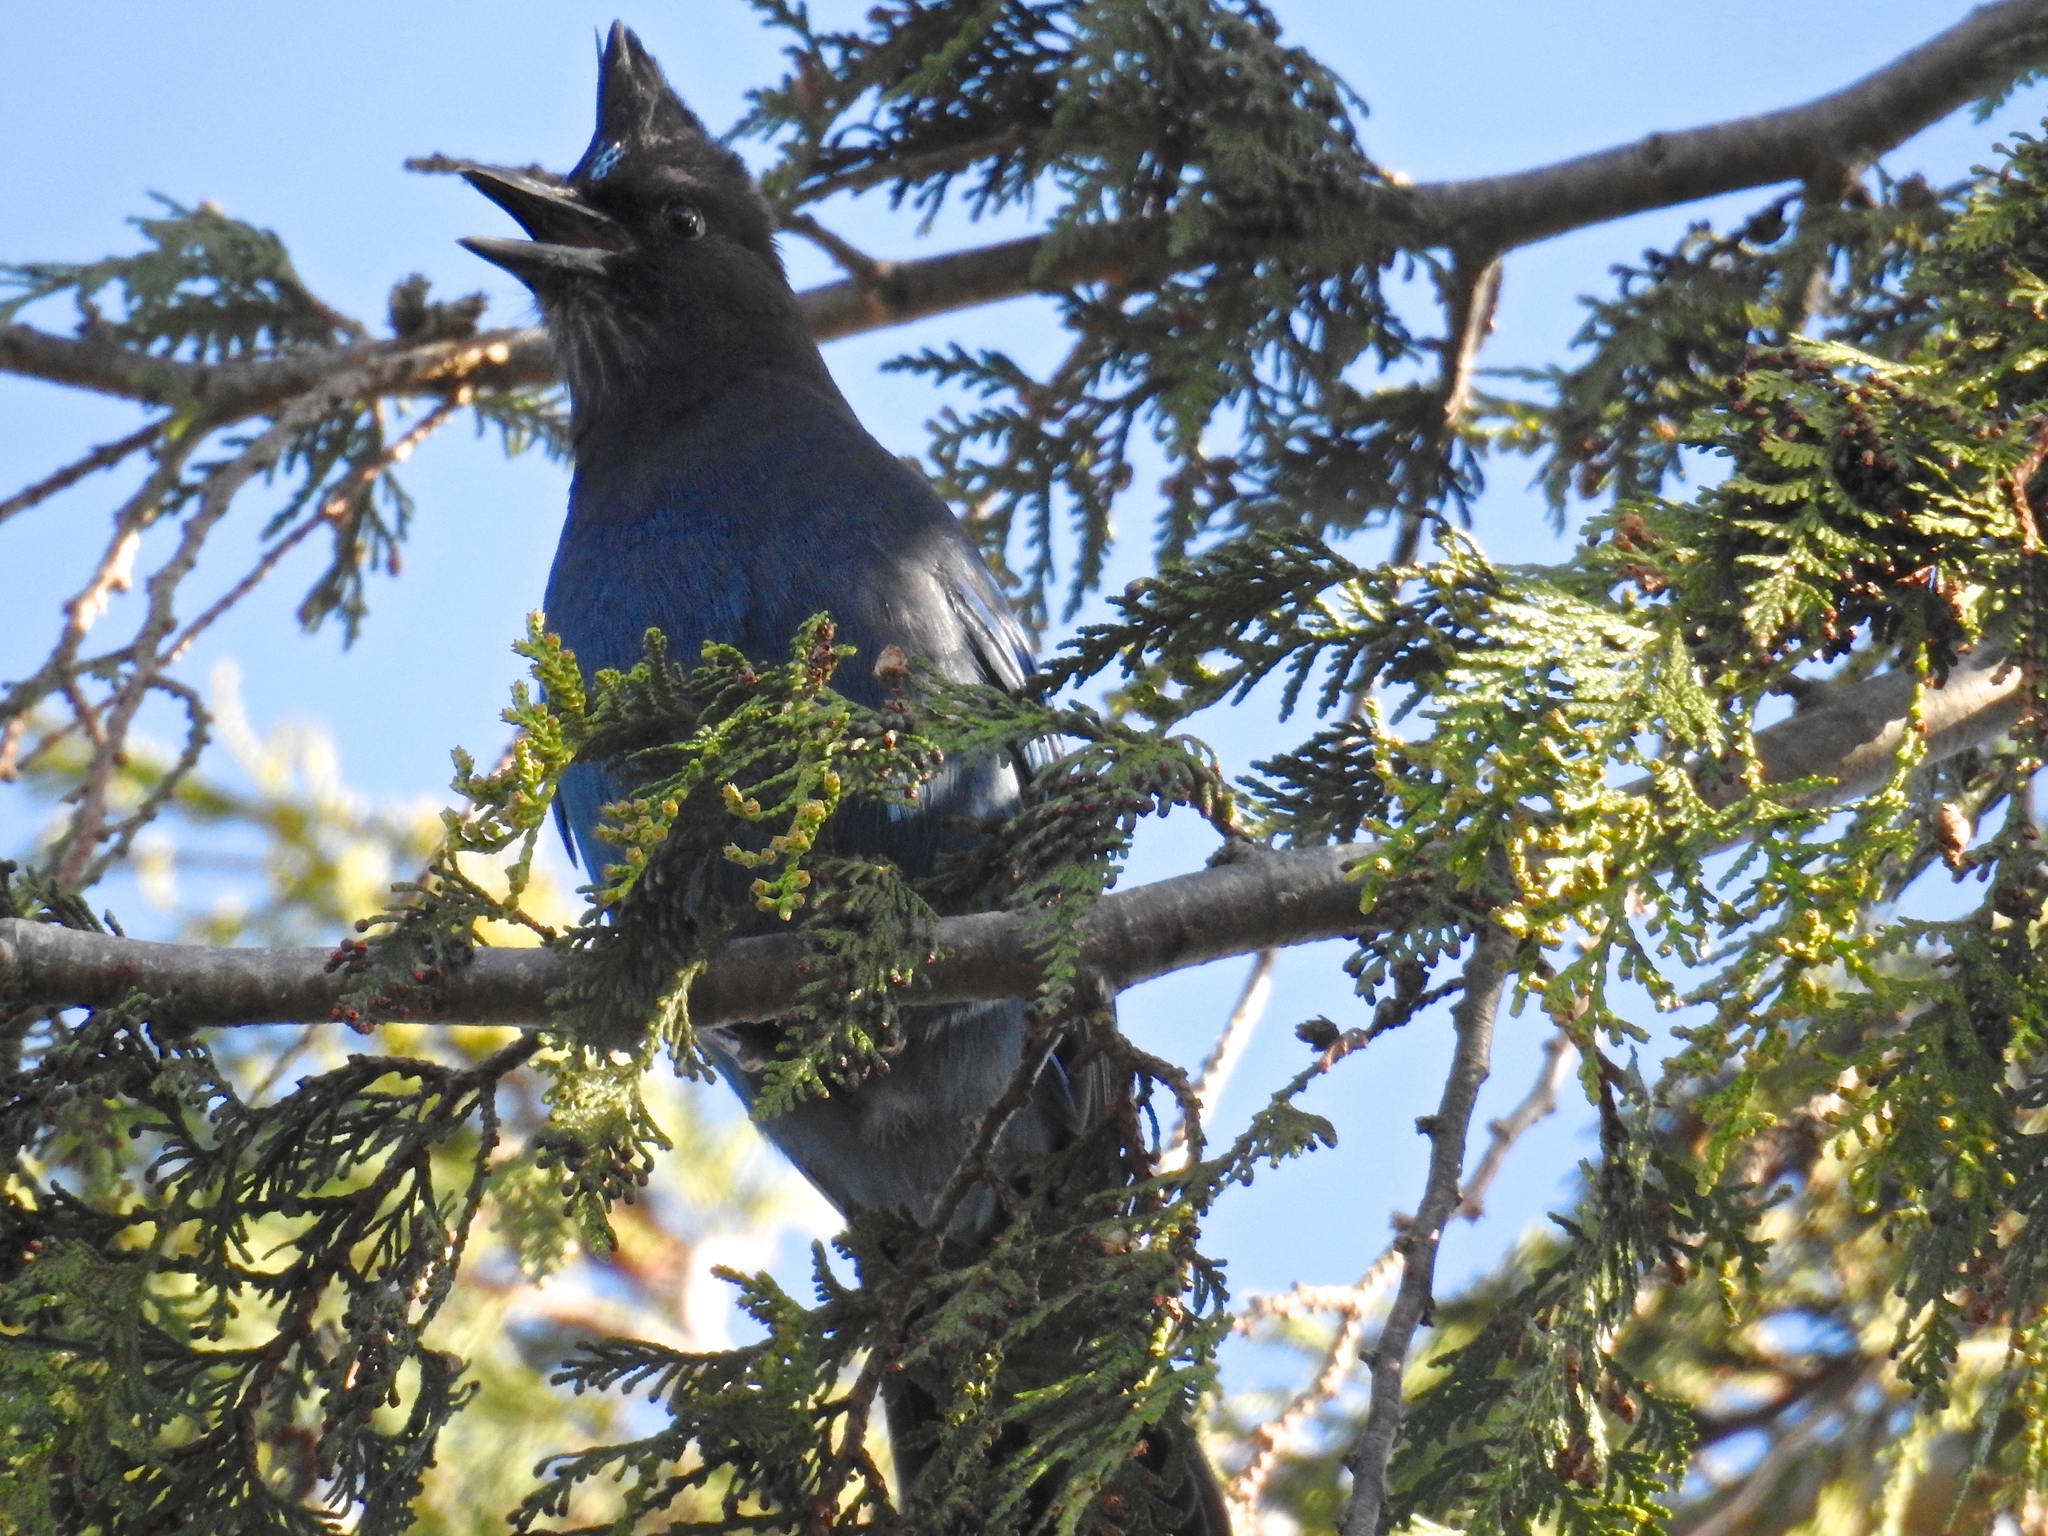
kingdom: Animalia
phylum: Chordata
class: Aves
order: Passeriformes
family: Corvidae
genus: Cyanocitta
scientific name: Cyanocitta stelleri
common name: Steller's jay
